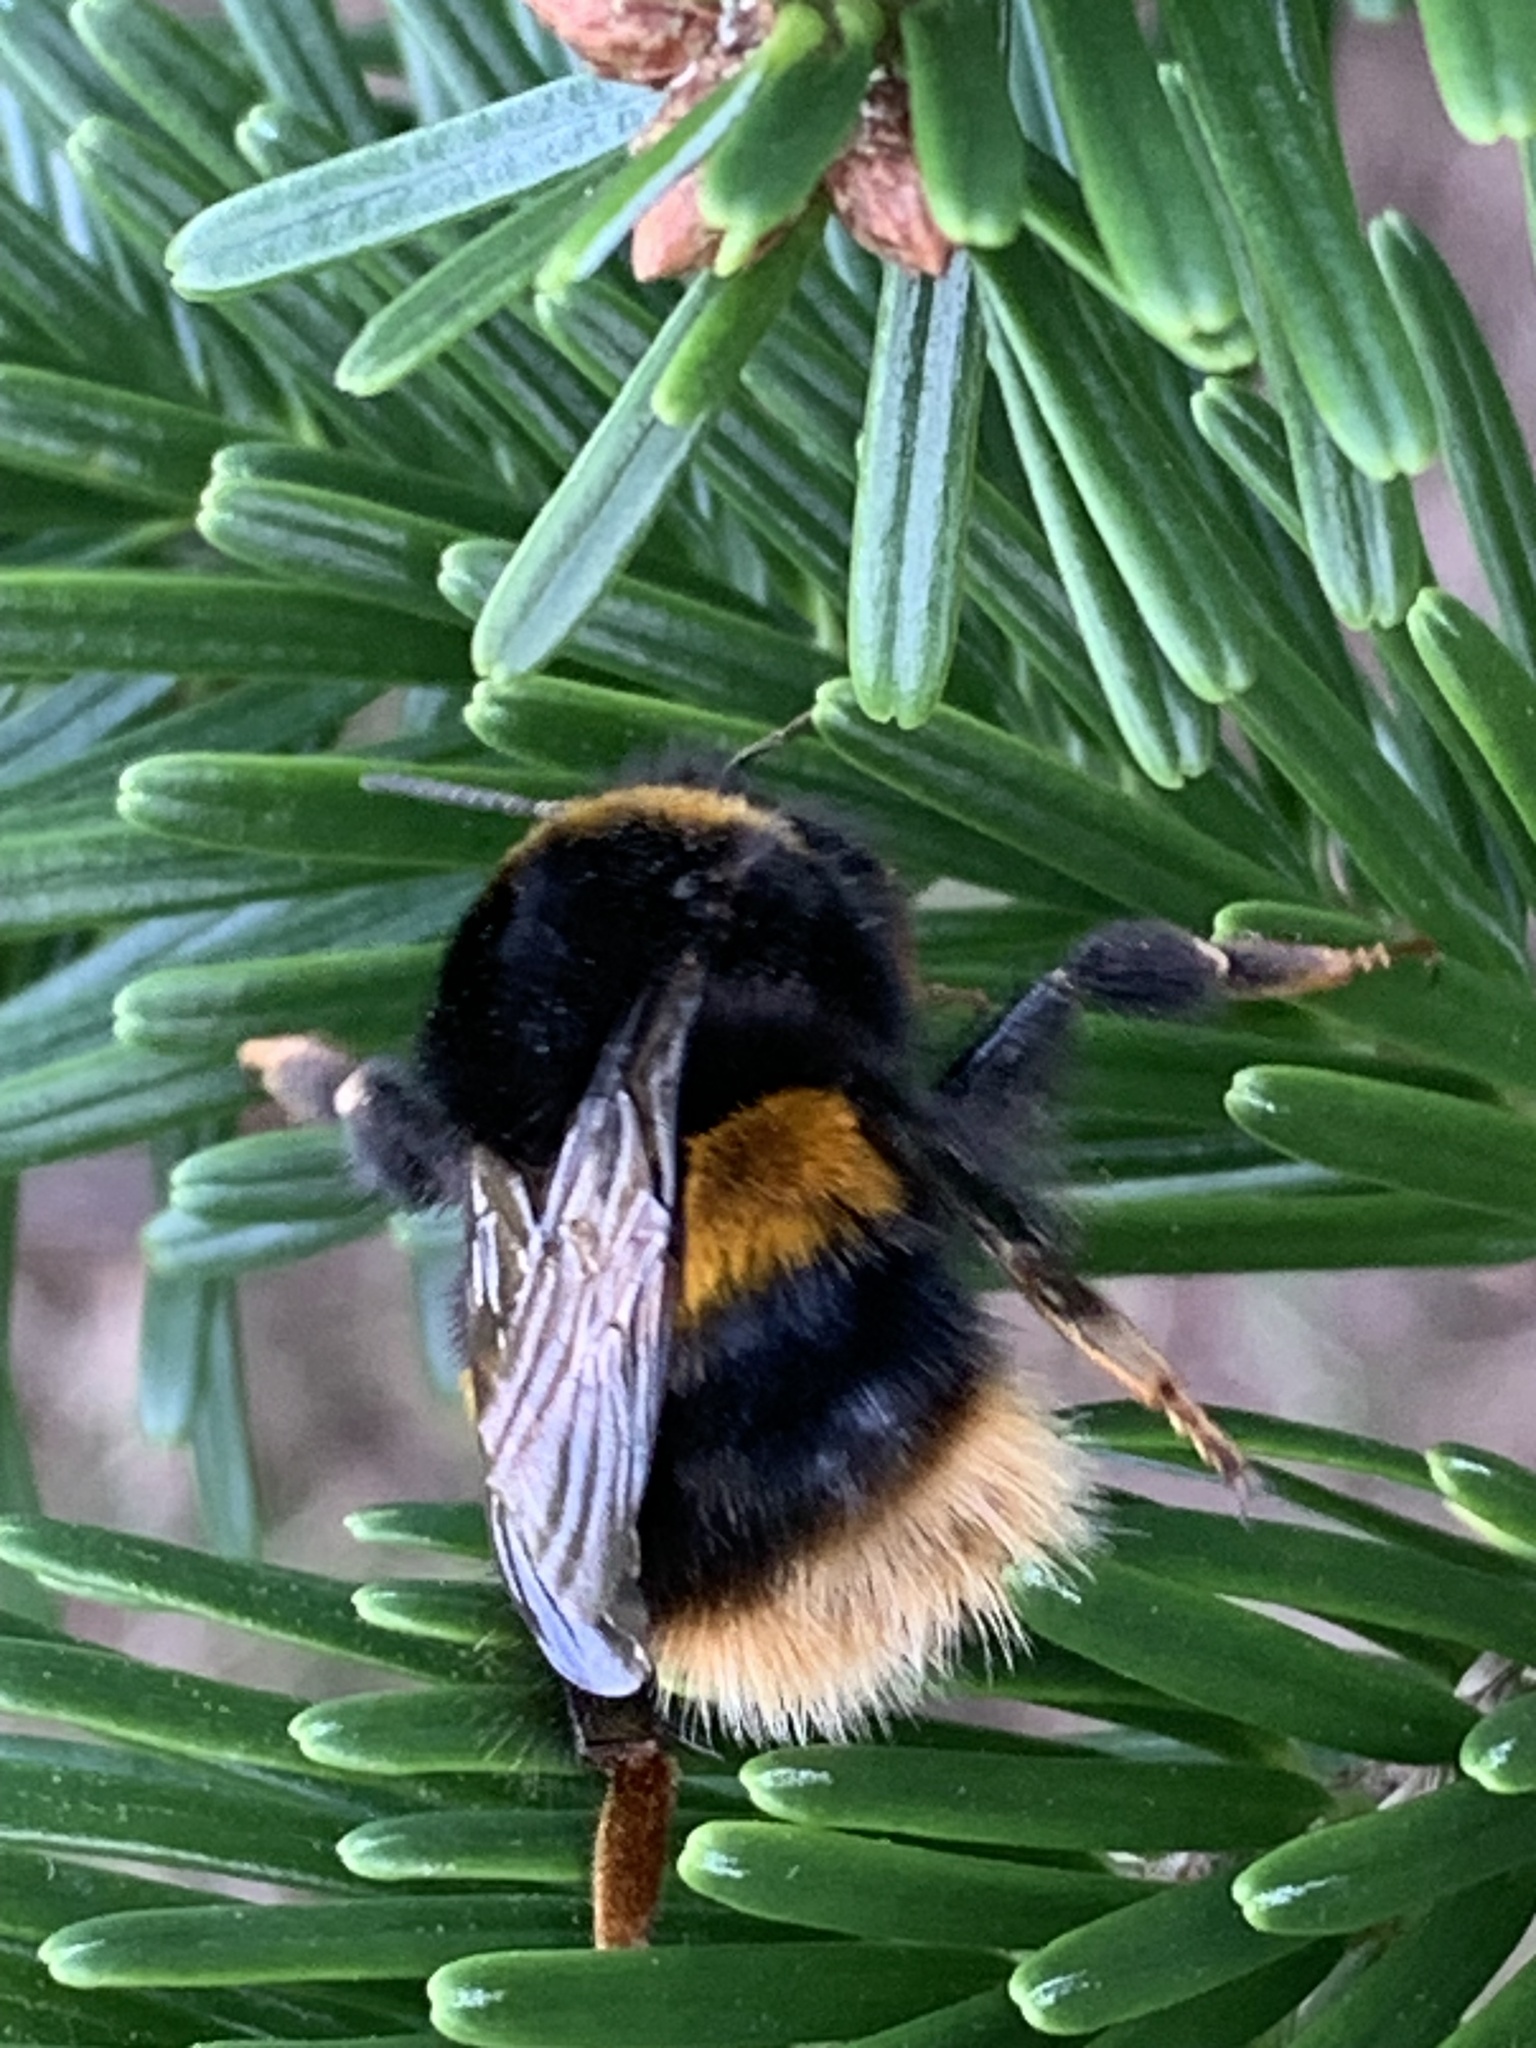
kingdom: Animalia
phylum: Arthropoda
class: Insecta
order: Hymenoptera
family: Apidae
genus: Bombus
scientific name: Bombus terrestris
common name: Buff-tailed bumblebee
